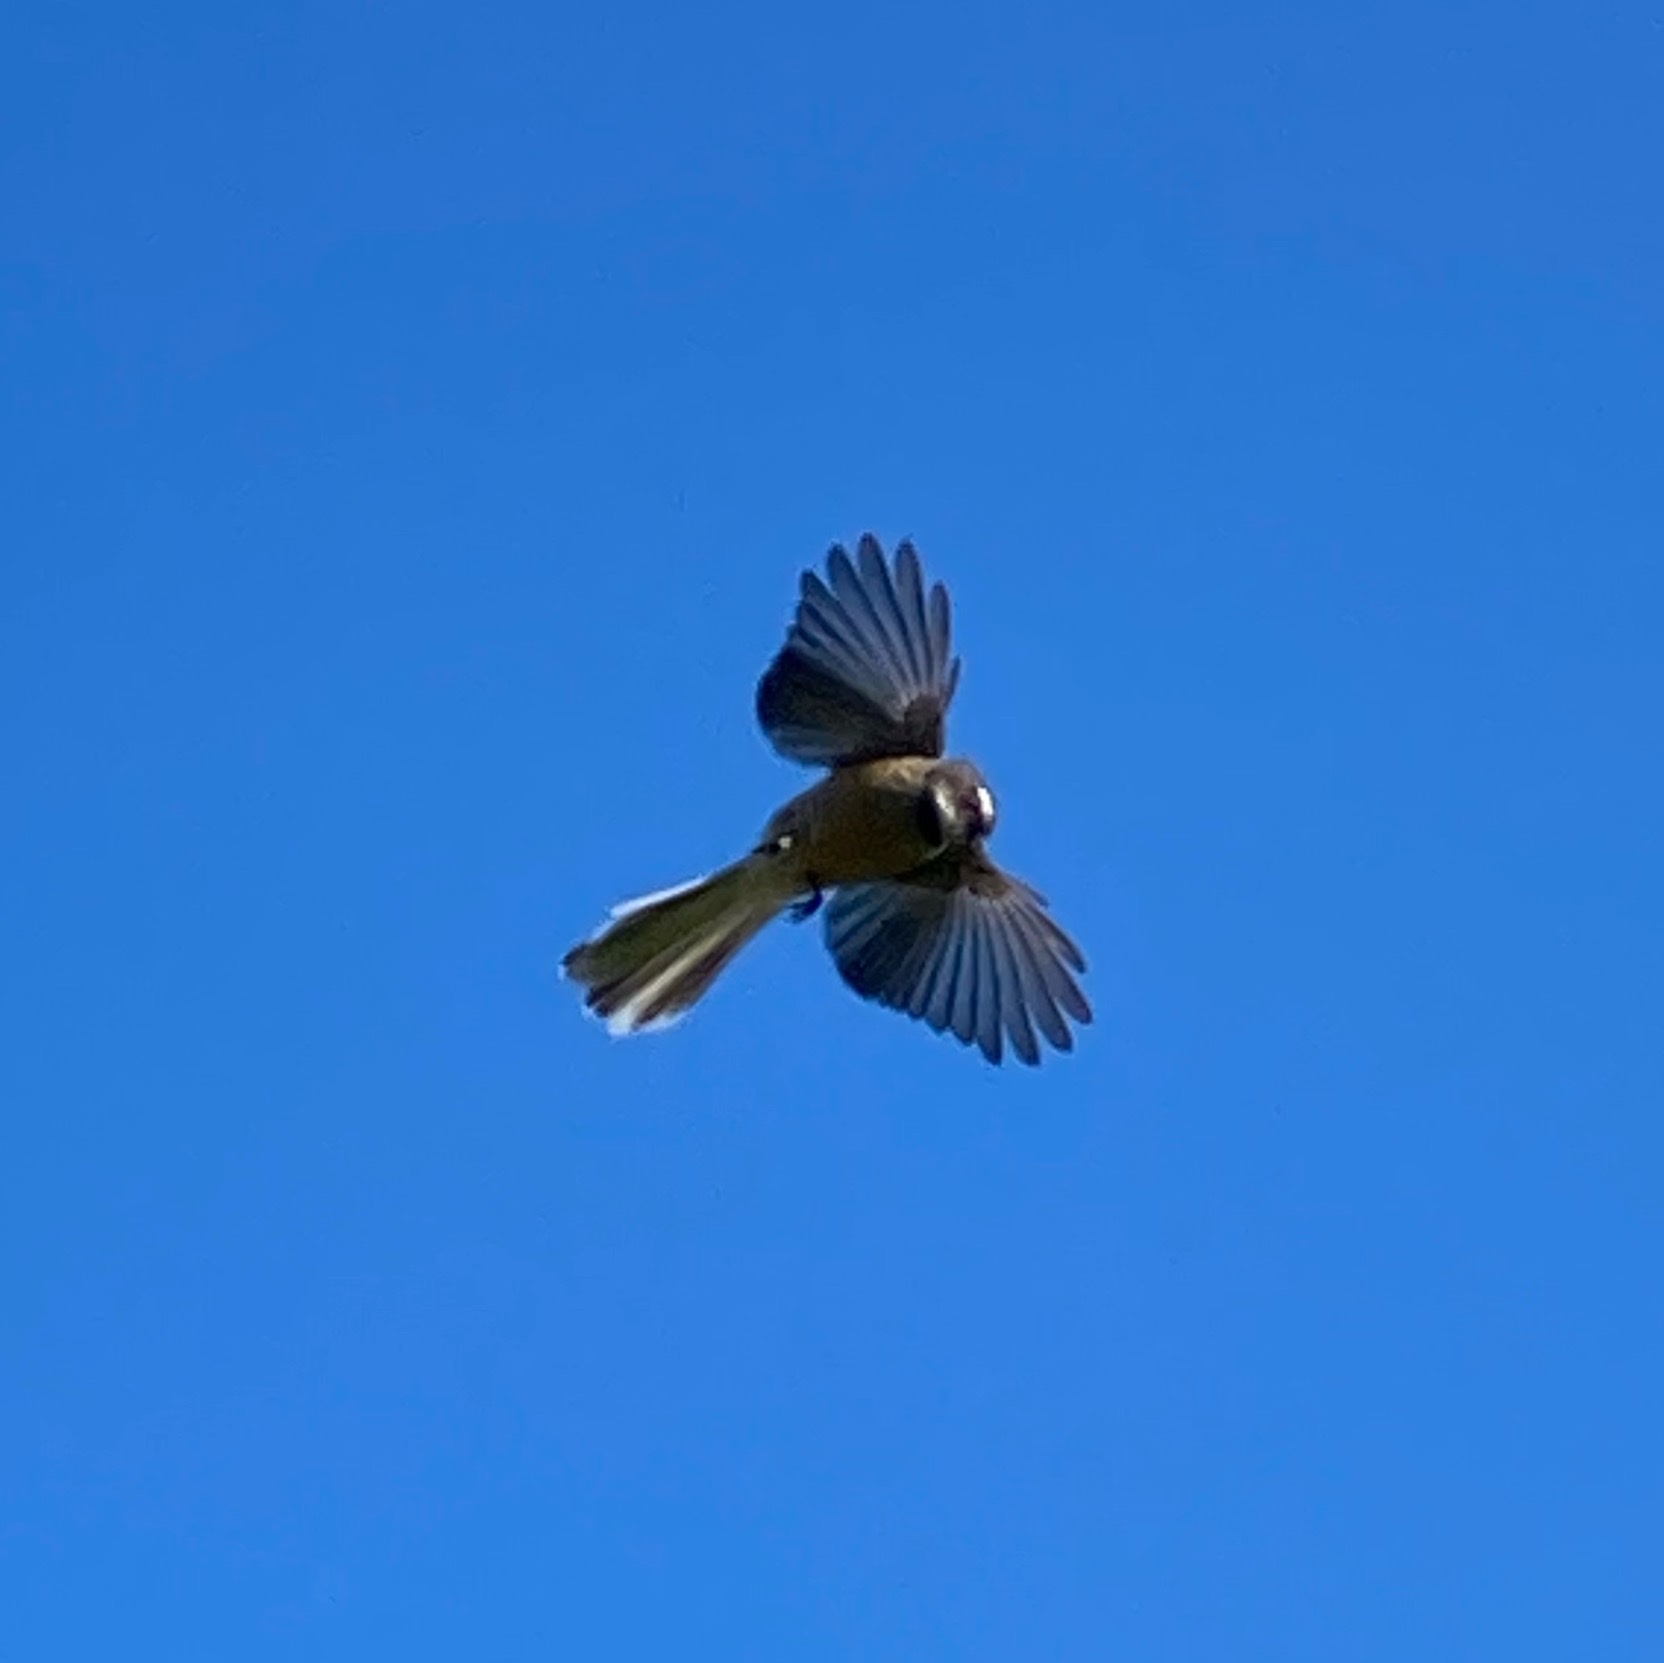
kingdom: Animalia
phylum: Chordata
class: Aves
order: Passeriformes
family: Rhipiduridae
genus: Rhipidura
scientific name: Rhipidura fuliginosa
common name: New zealand fantail
